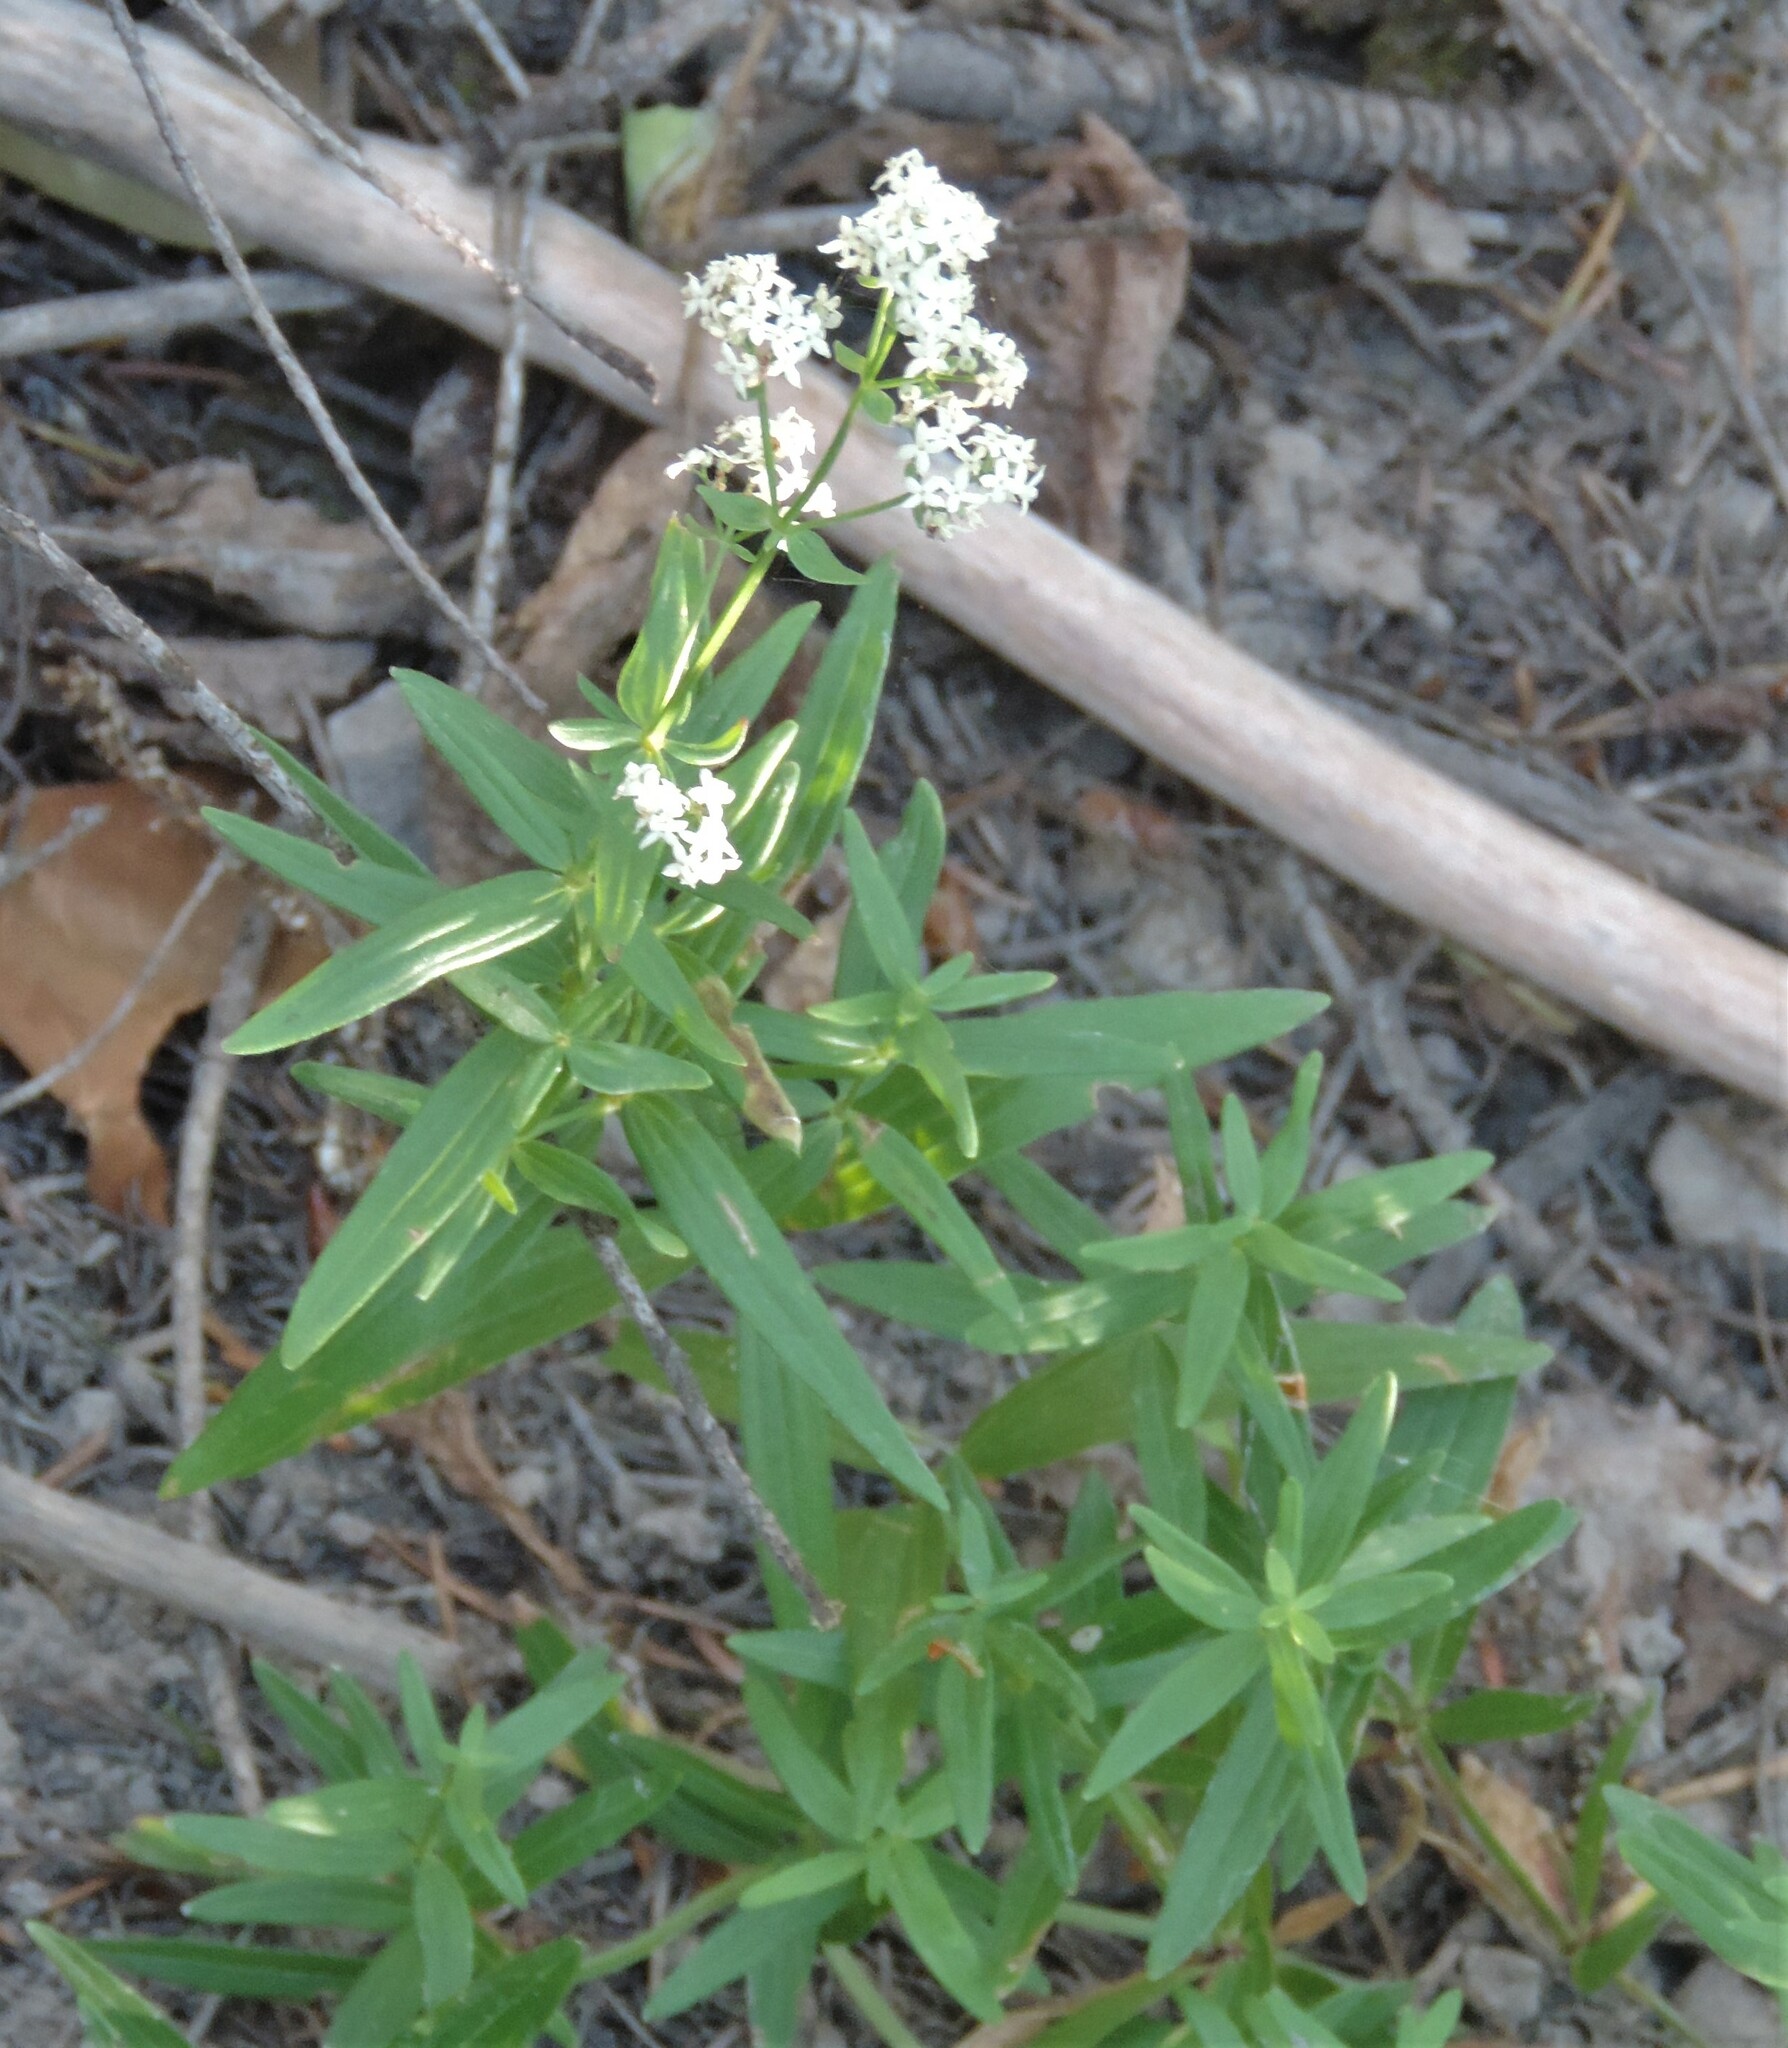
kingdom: Plantae
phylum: Tracheophyta
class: Magnoliopsida
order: Gentianales
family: Rubiaceae
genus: Galium
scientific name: Galium boreale
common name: Northern bedstraw
